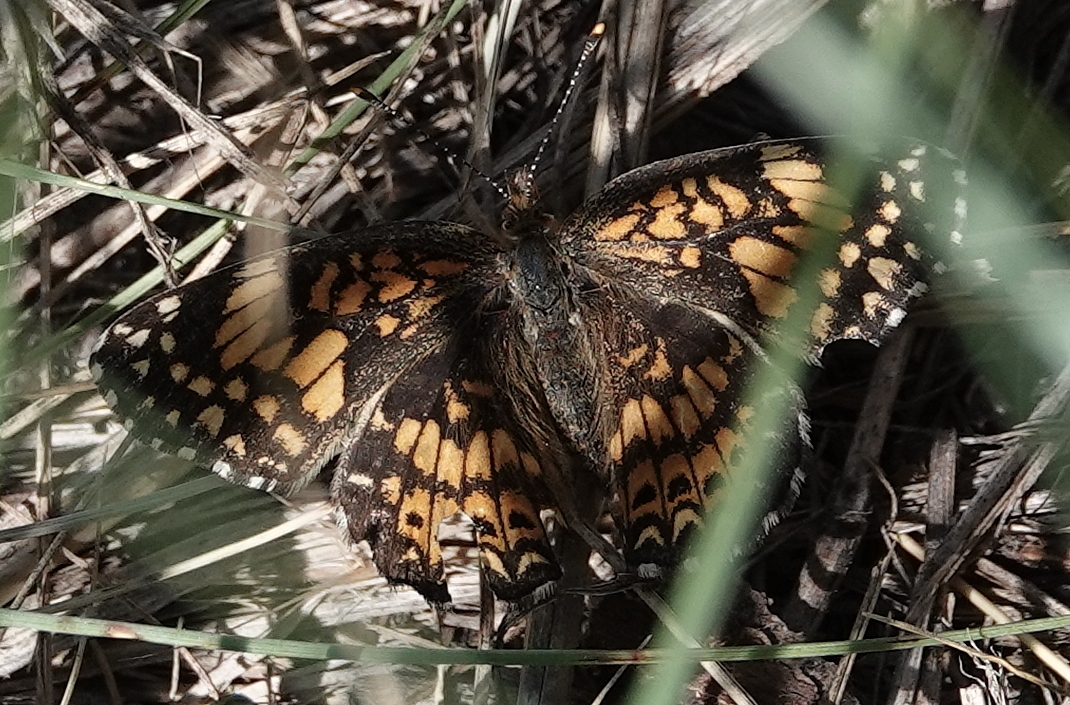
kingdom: Animalia
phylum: Arthropoda
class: Insecta
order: Lepidoptera
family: Nymphalidae
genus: Chlosyne
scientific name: Chlosyne gorgone
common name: Gorgone checkerspot
